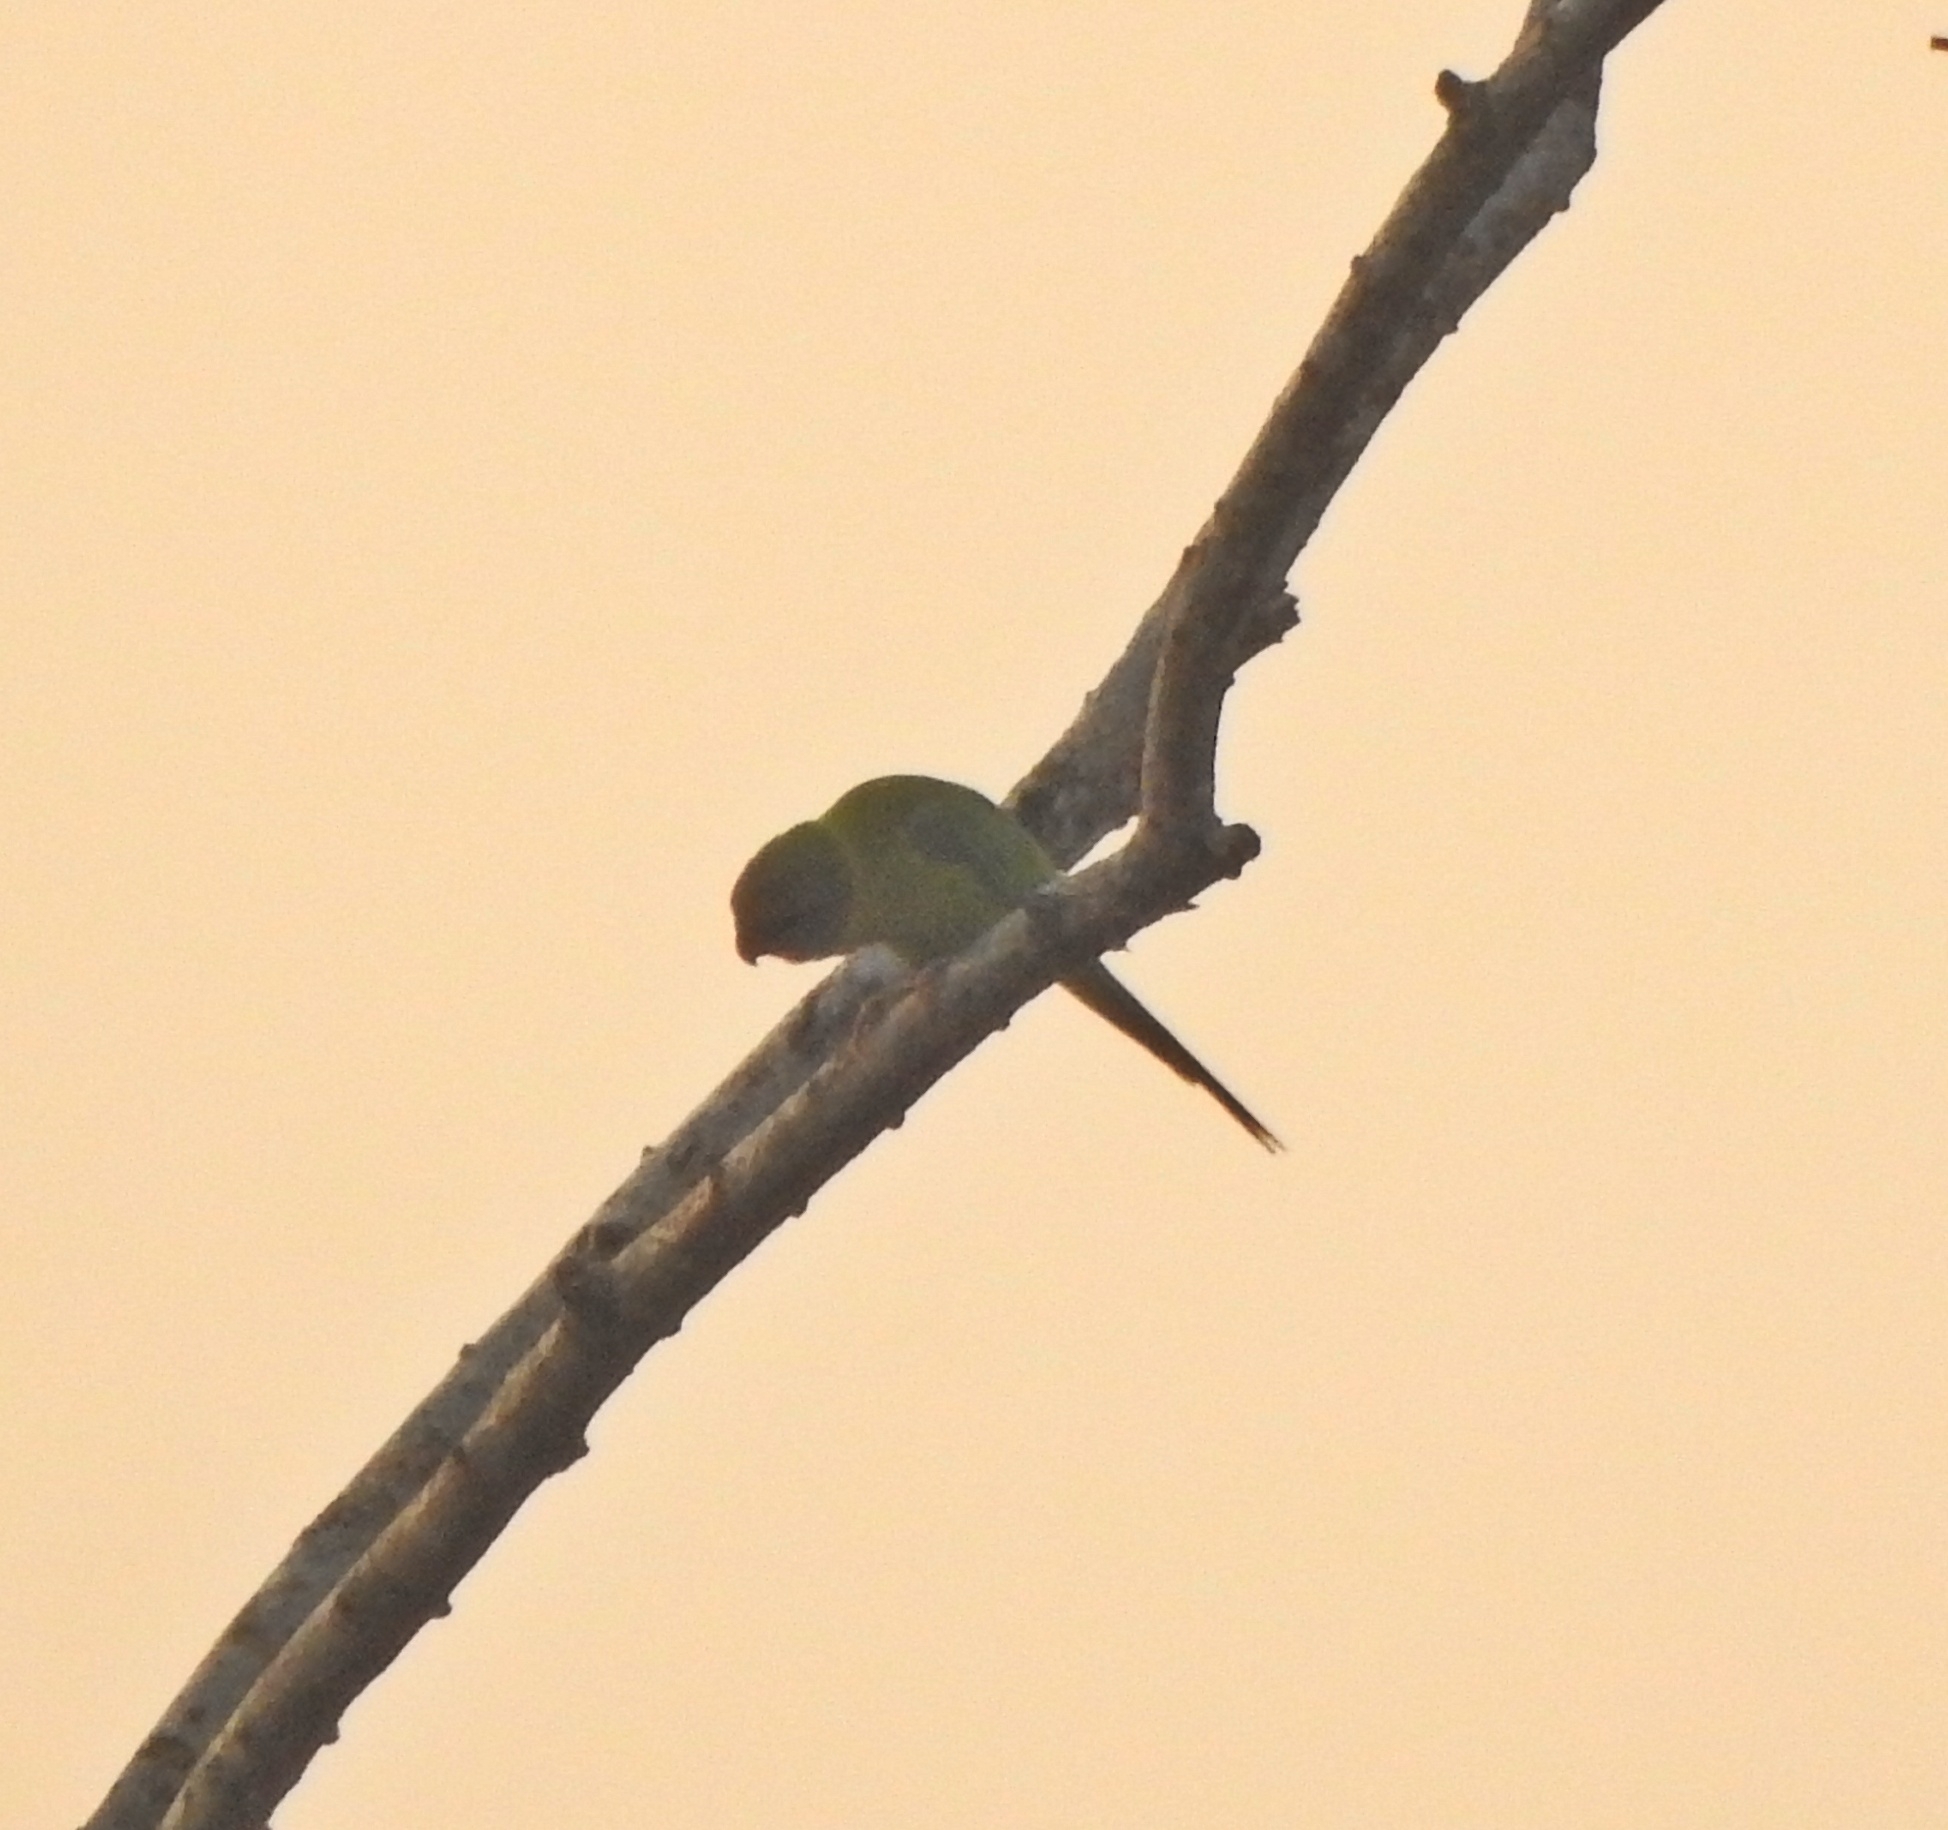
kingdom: Animalia
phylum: Chordata
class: Aves
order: Psittaciformes
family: Psittacidae
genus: Psittacula
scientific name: Psittacula cyanocephala
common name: Plum-headed parakeet
